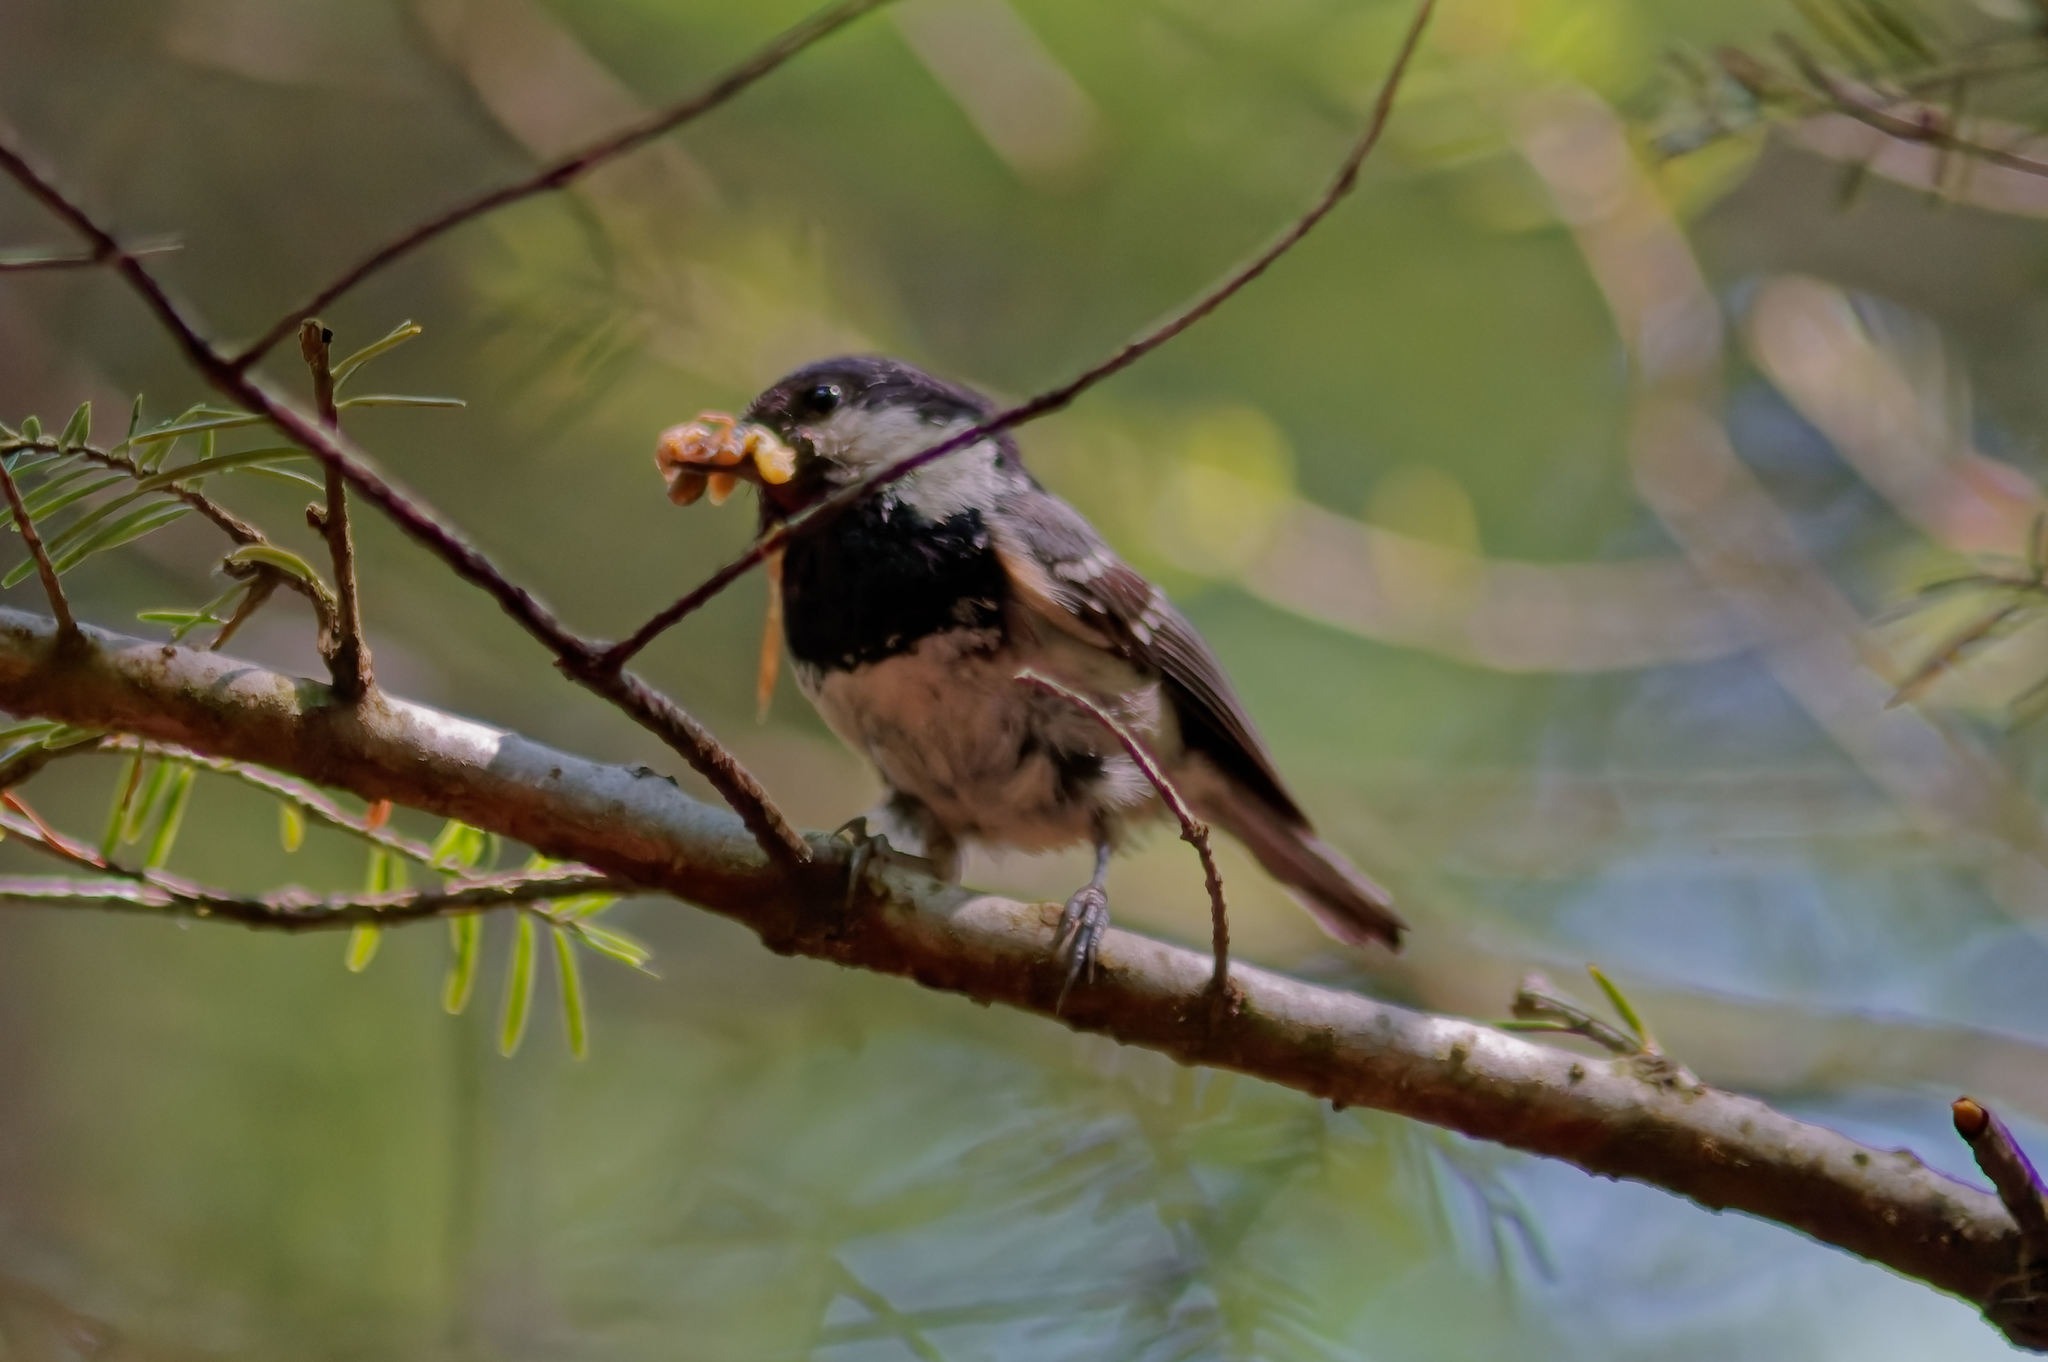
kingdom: Animalia
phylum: Chordata
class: Aves
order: Passeriformes
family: Paridae
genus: Periparus
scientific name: Periparus ater
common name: Coal tit
